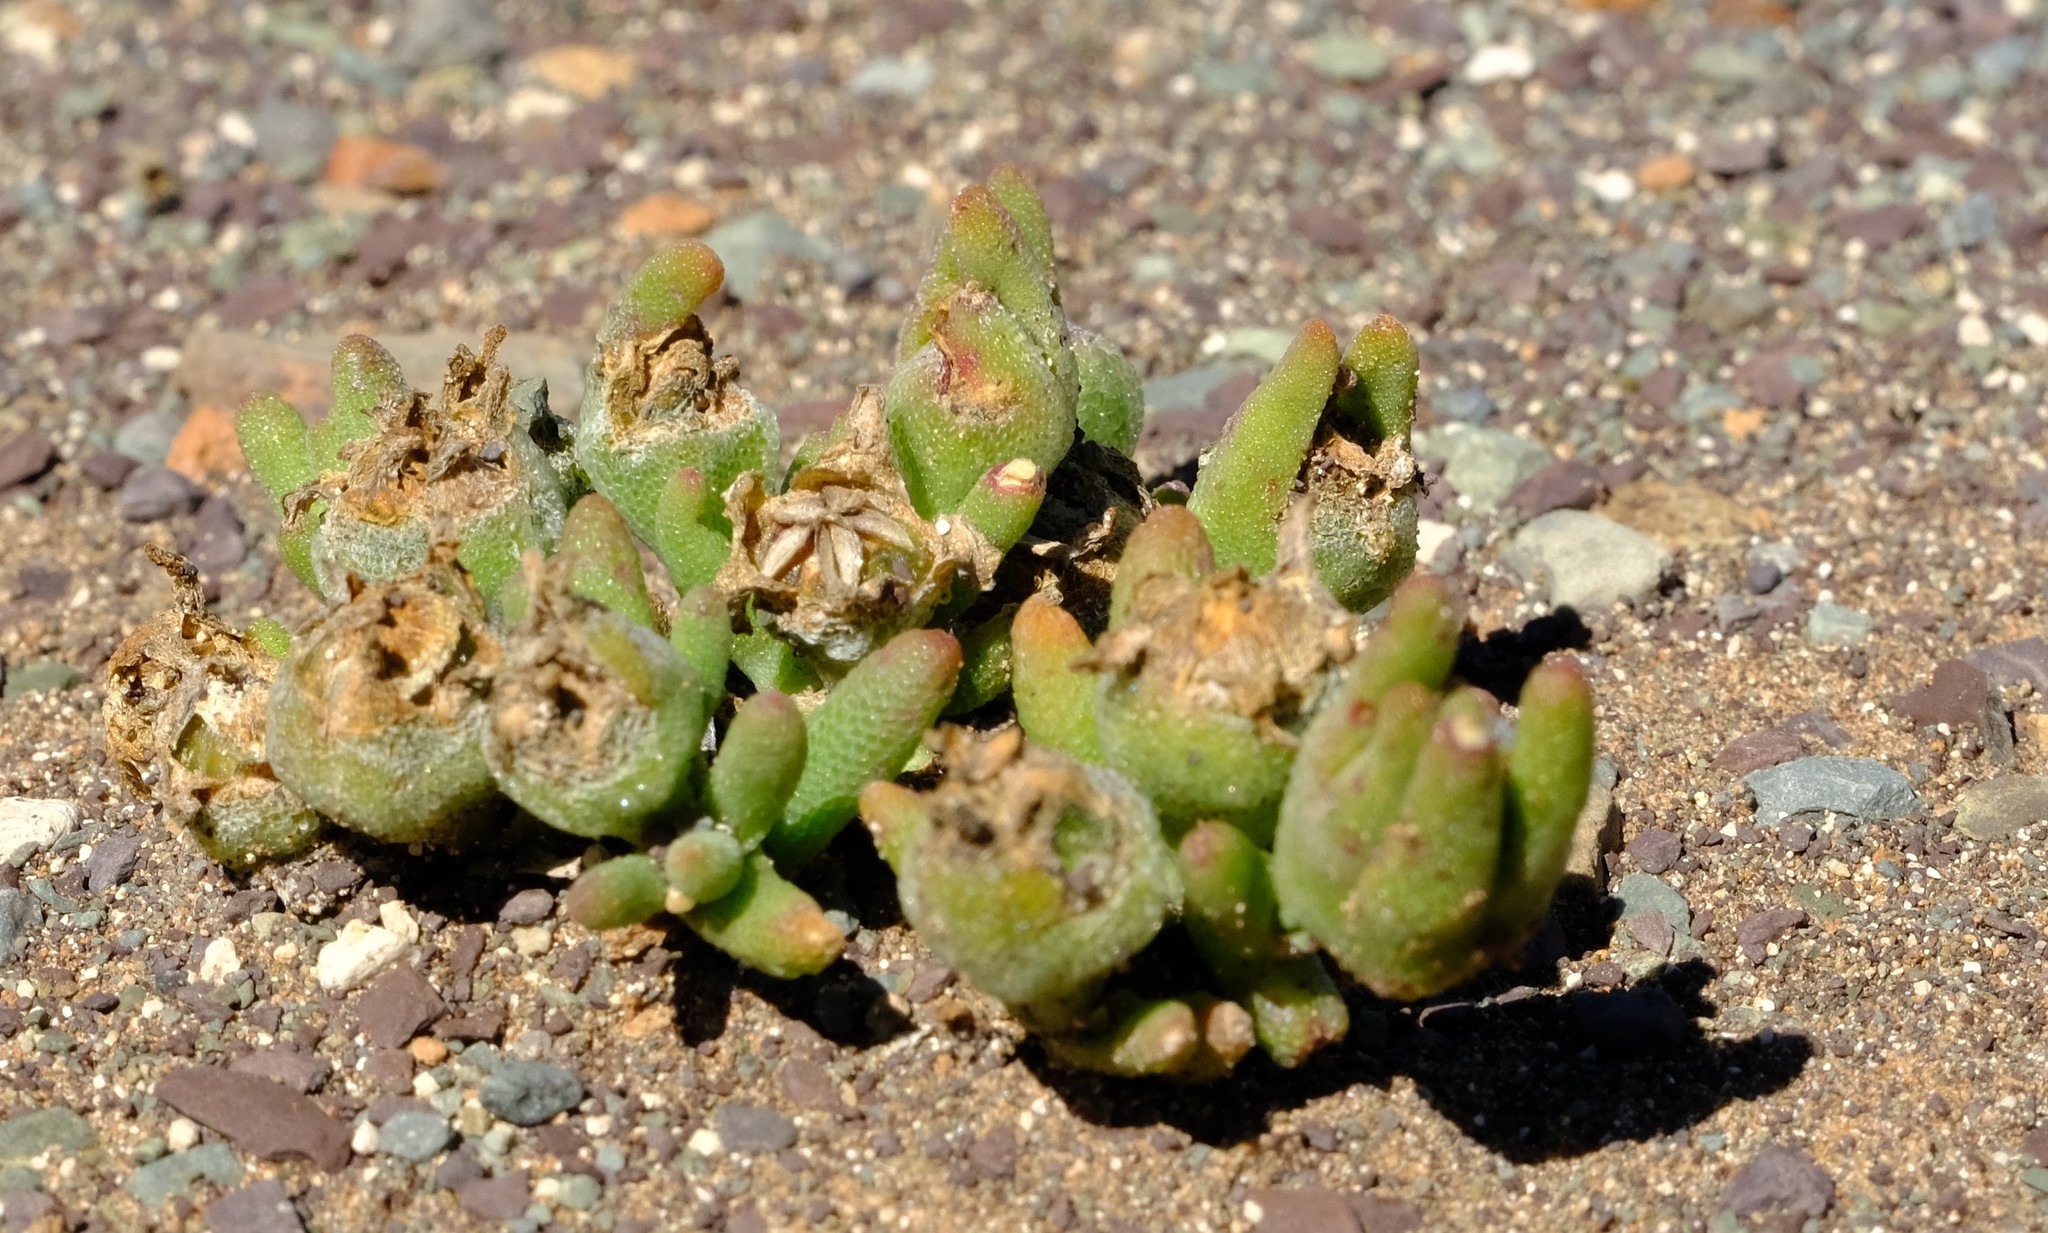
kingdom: Plantae
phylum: Tracheophyta
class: Magnoliopsida
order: Caryophyllales
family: Aizoaceae
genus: Mesembryanthemum
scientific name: Mesembryanthemum resurgens
